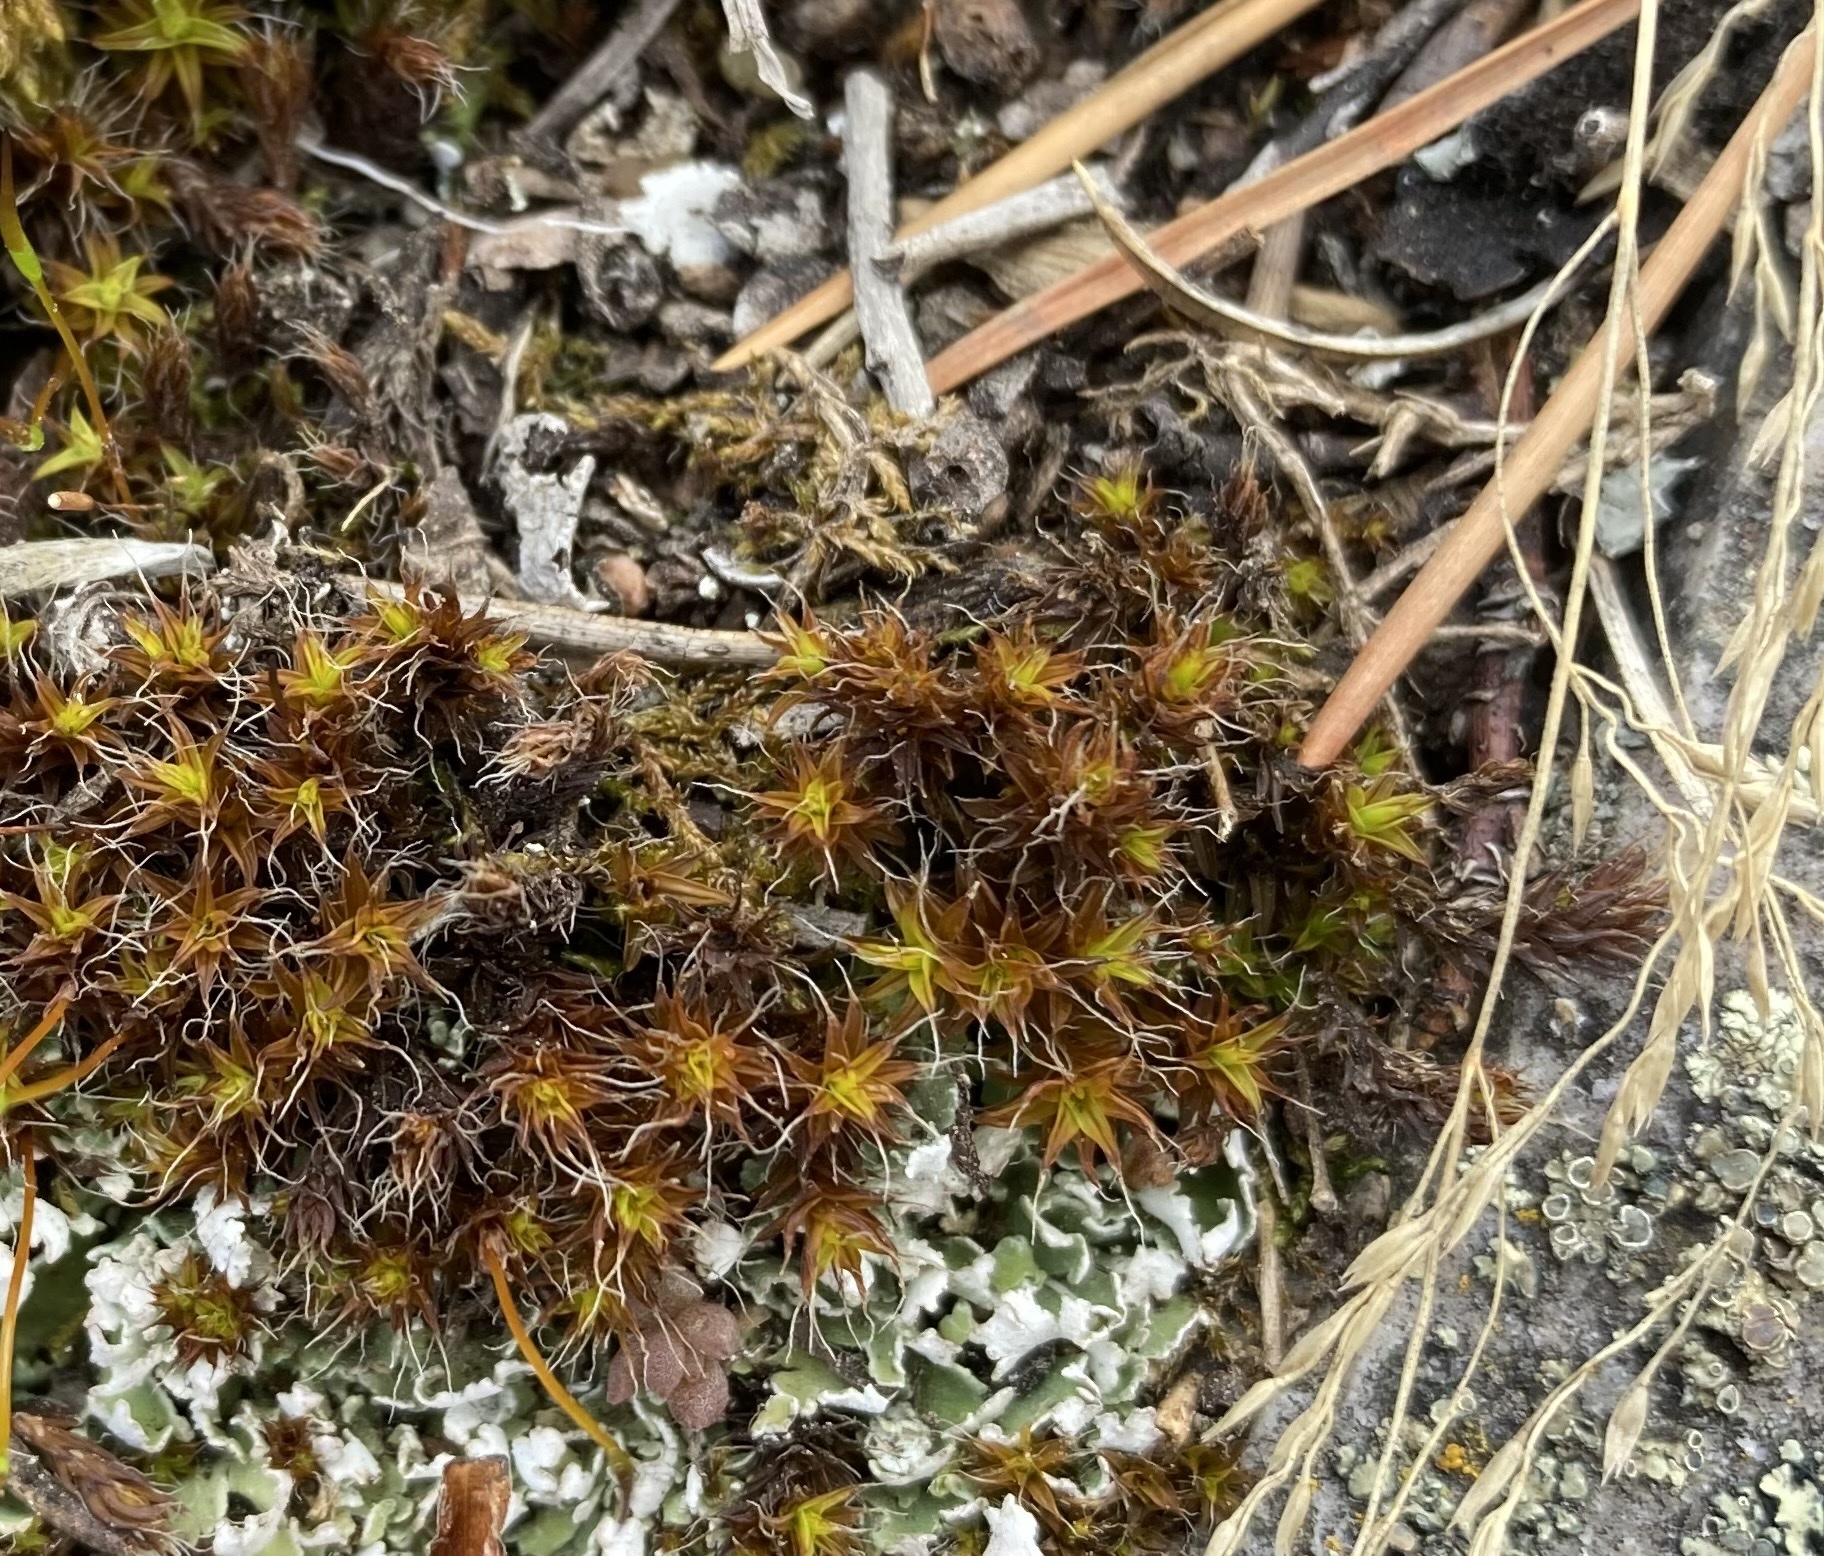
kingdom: Plantae
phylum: Bryophyta
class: Bryopsida
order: Pottiales
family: Pottiaceae
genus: Syntrichia
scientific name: Syntrichia ruralis
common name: Sidewalk screw moss
